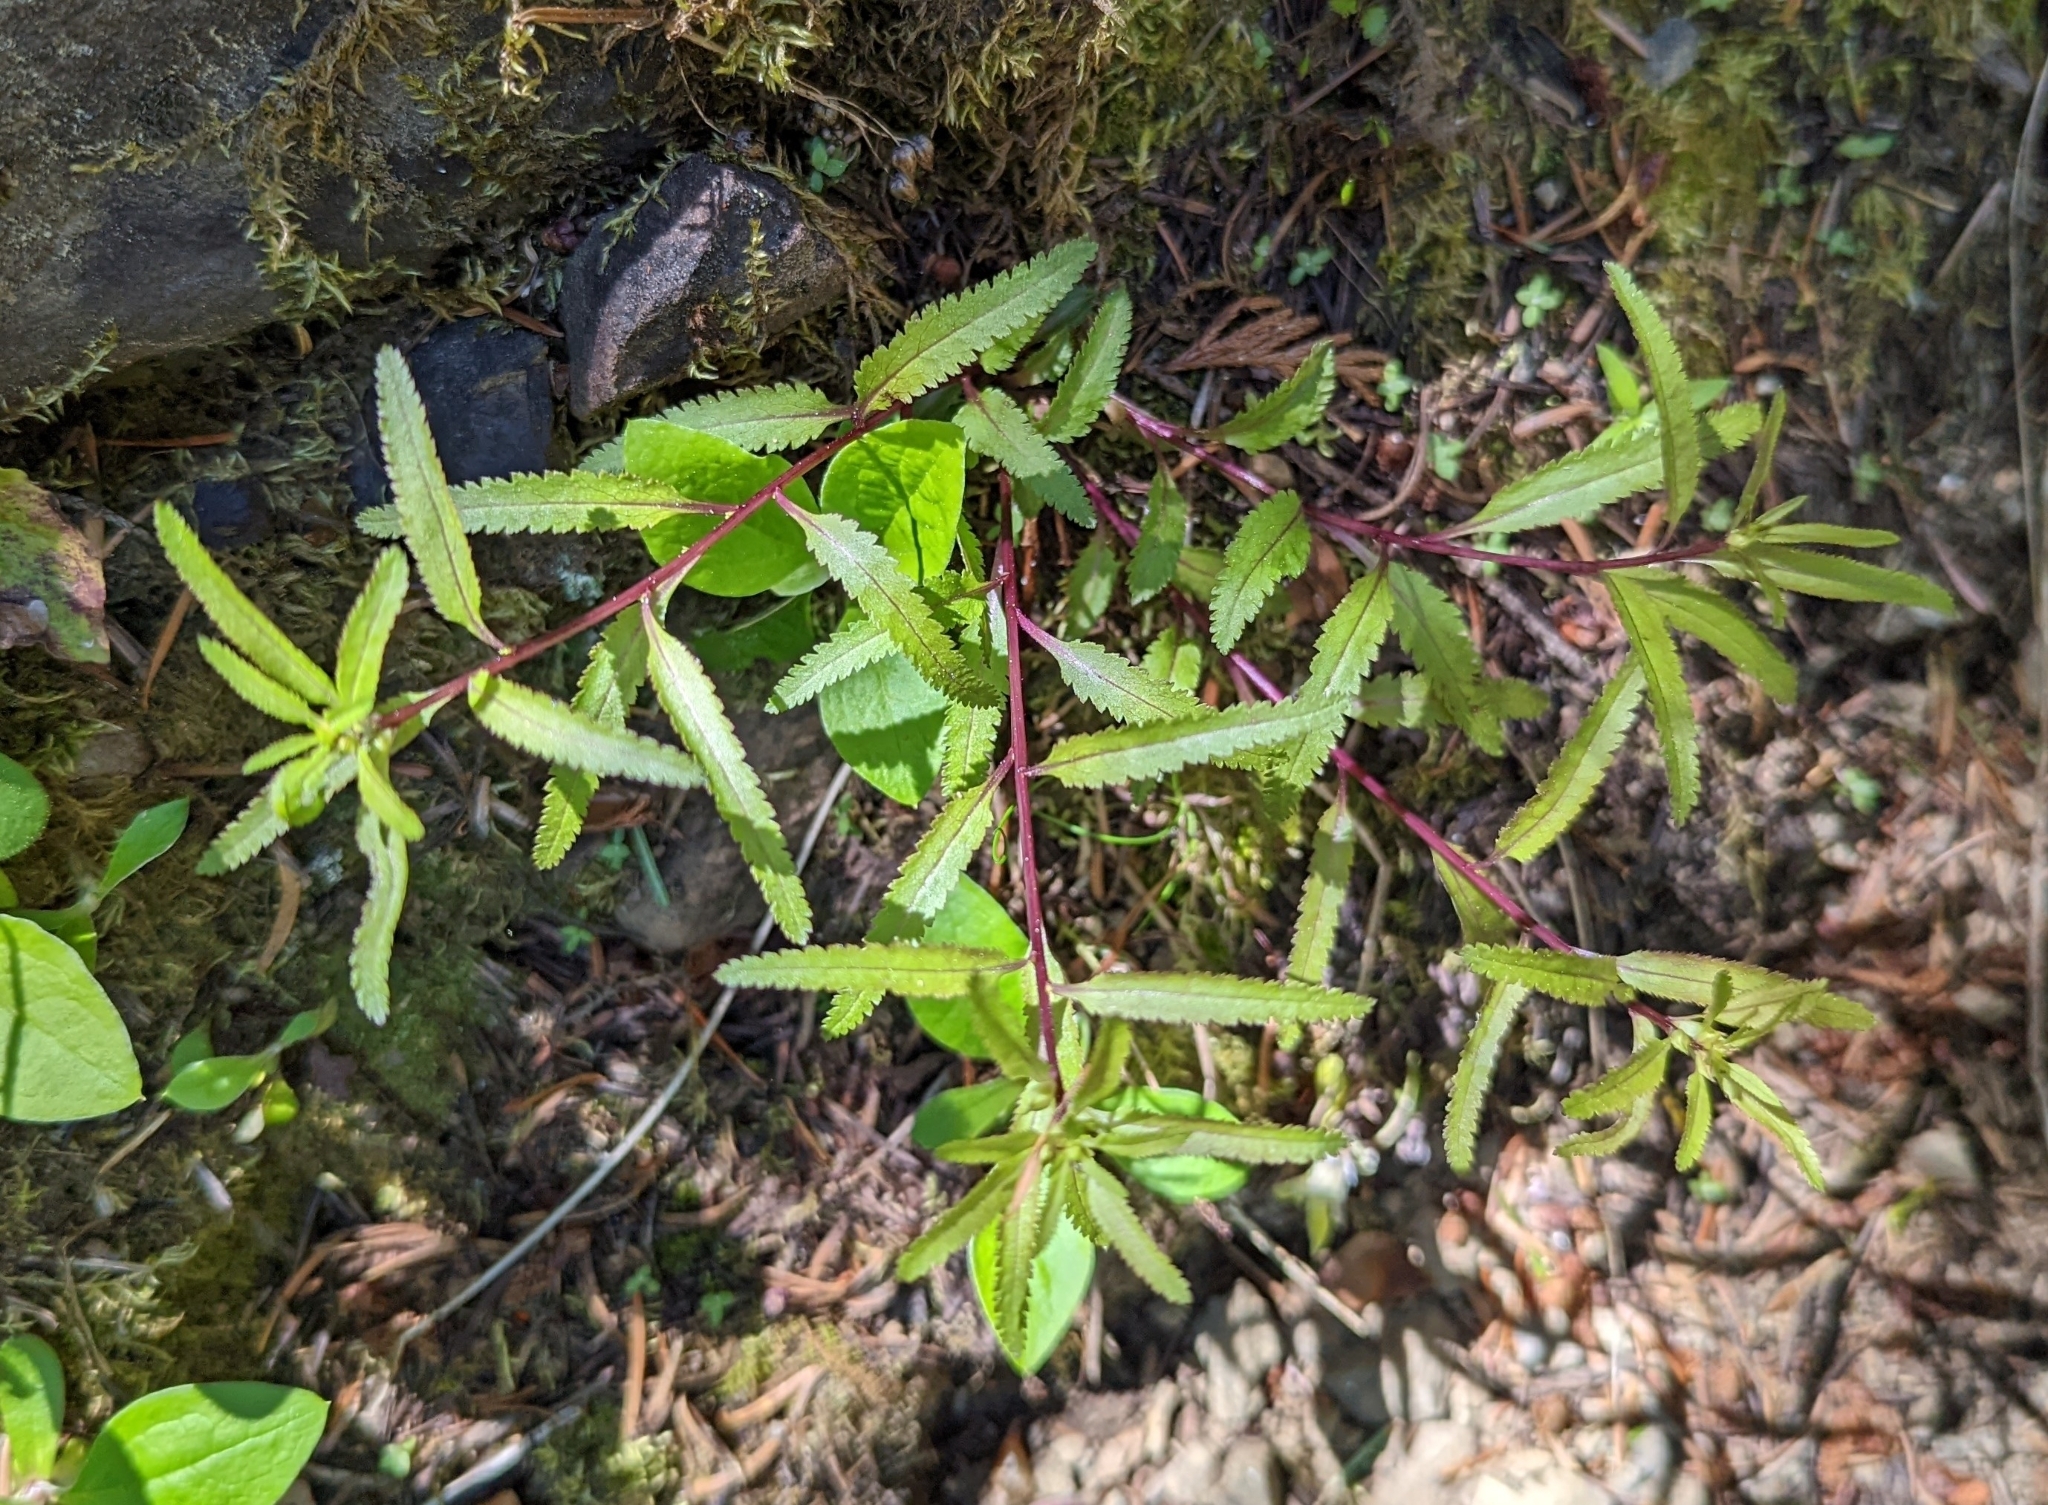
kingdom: Plantae
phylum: Tracheophyta
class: Magnoliopsida
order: Lamiales
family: Orobanchaceae
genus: Pedicularis
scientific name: Pedicularis racemosa
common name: Leafy lousewort
